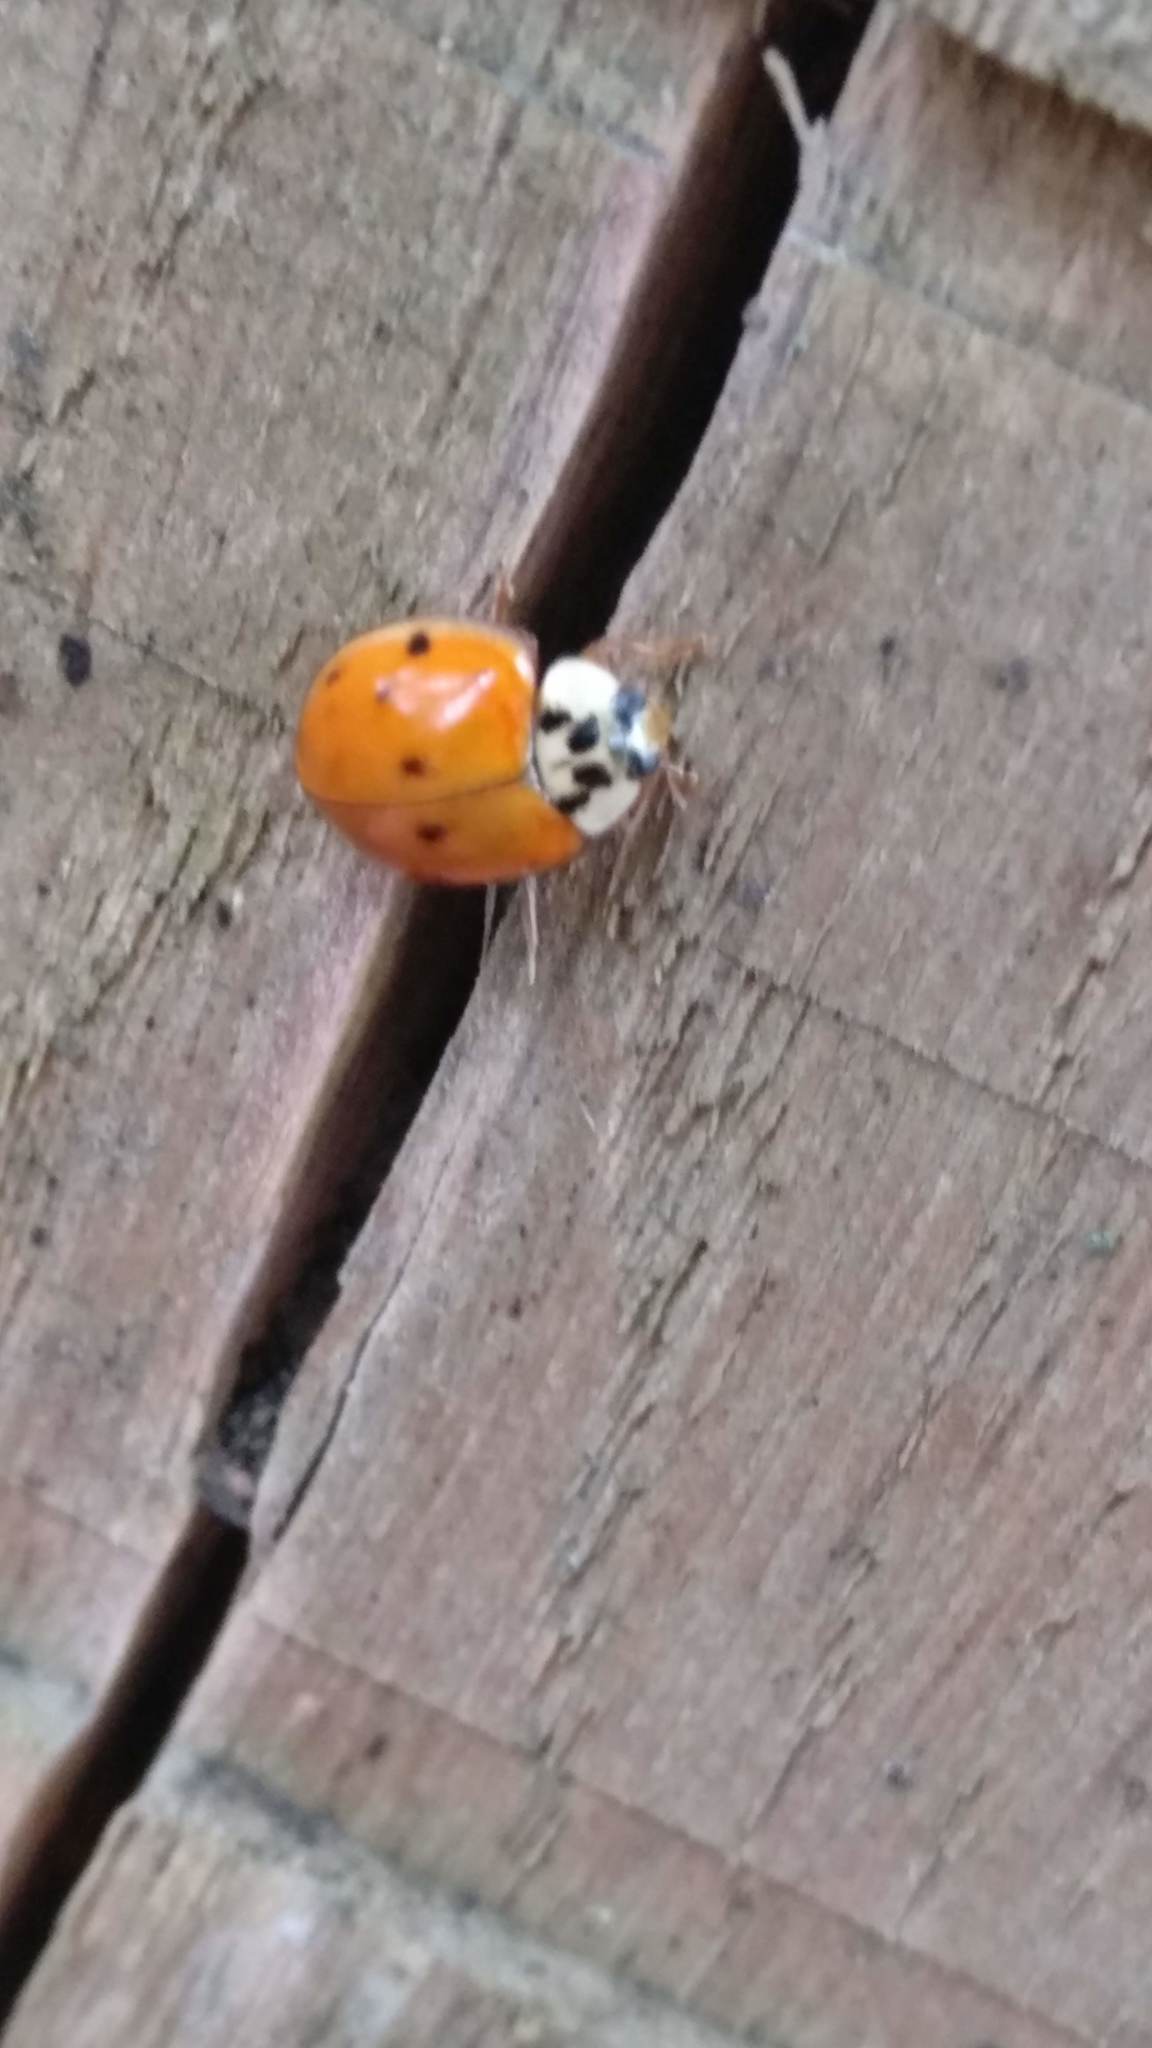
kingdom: Animalia
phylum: Arthropoda
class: Insecta
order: Coleoptera
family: Coccinellidae
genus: Harmonia
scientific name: Harmonia axyridis
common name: Harlequin ladybird
